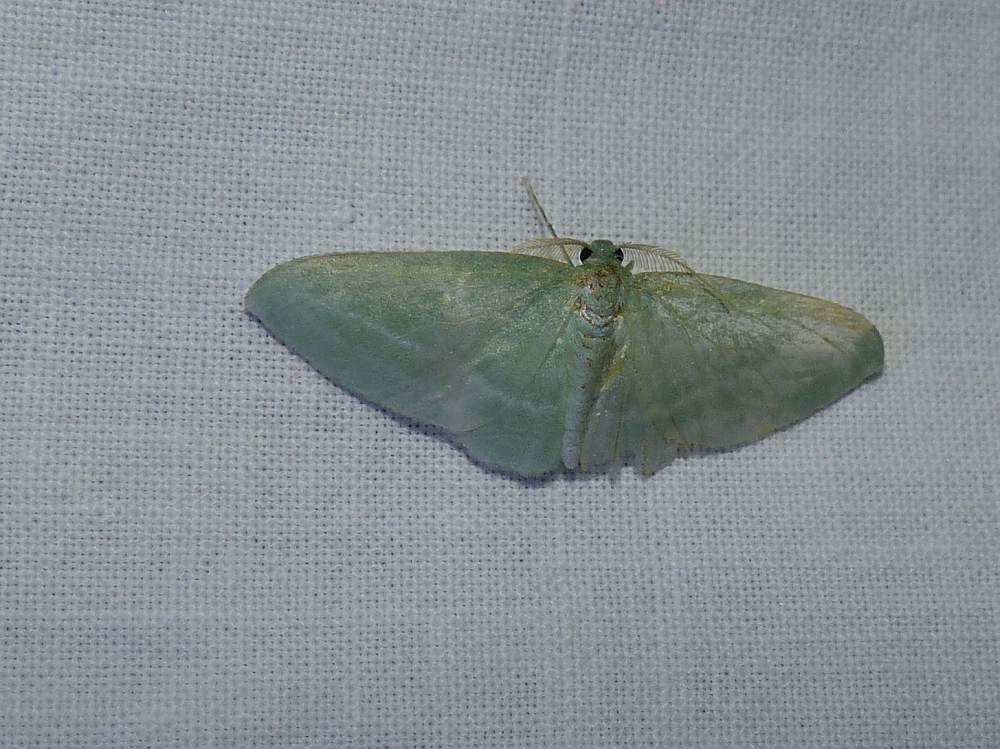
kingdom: Animalia
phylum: Arthropoda
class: Insecta
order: Lepidoptera
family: Geometridae
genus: Dyspteris
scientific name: Dyspteris abortivaria
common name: Bad-wing
